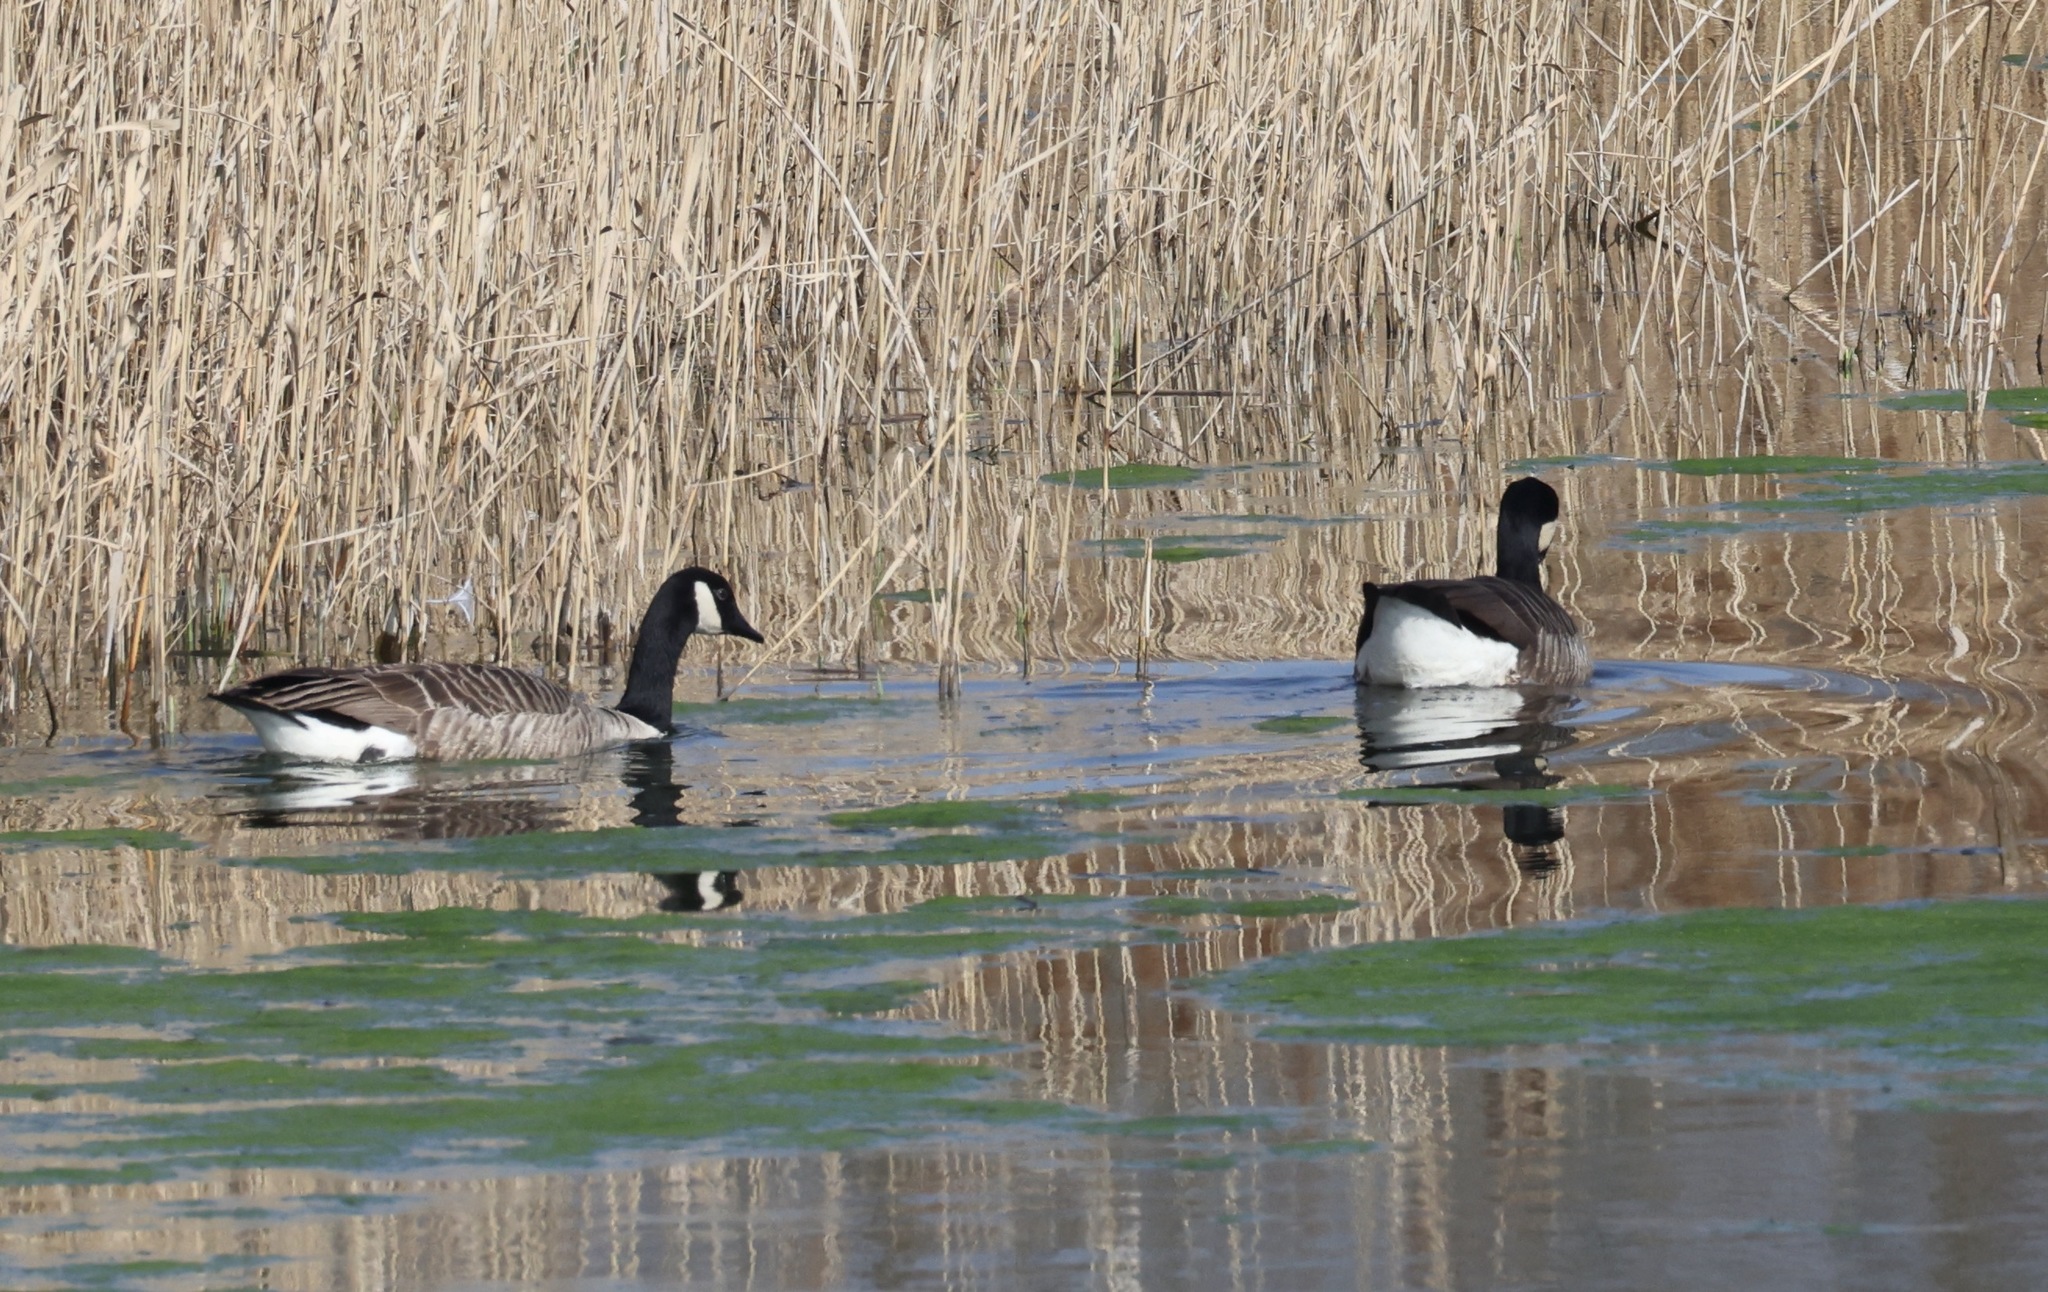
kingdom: Animalia
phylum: Chordata
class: Aves
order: Anseriformes
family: Anatidae
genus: Branta
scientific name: Branta canadensis
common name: Canada goose
